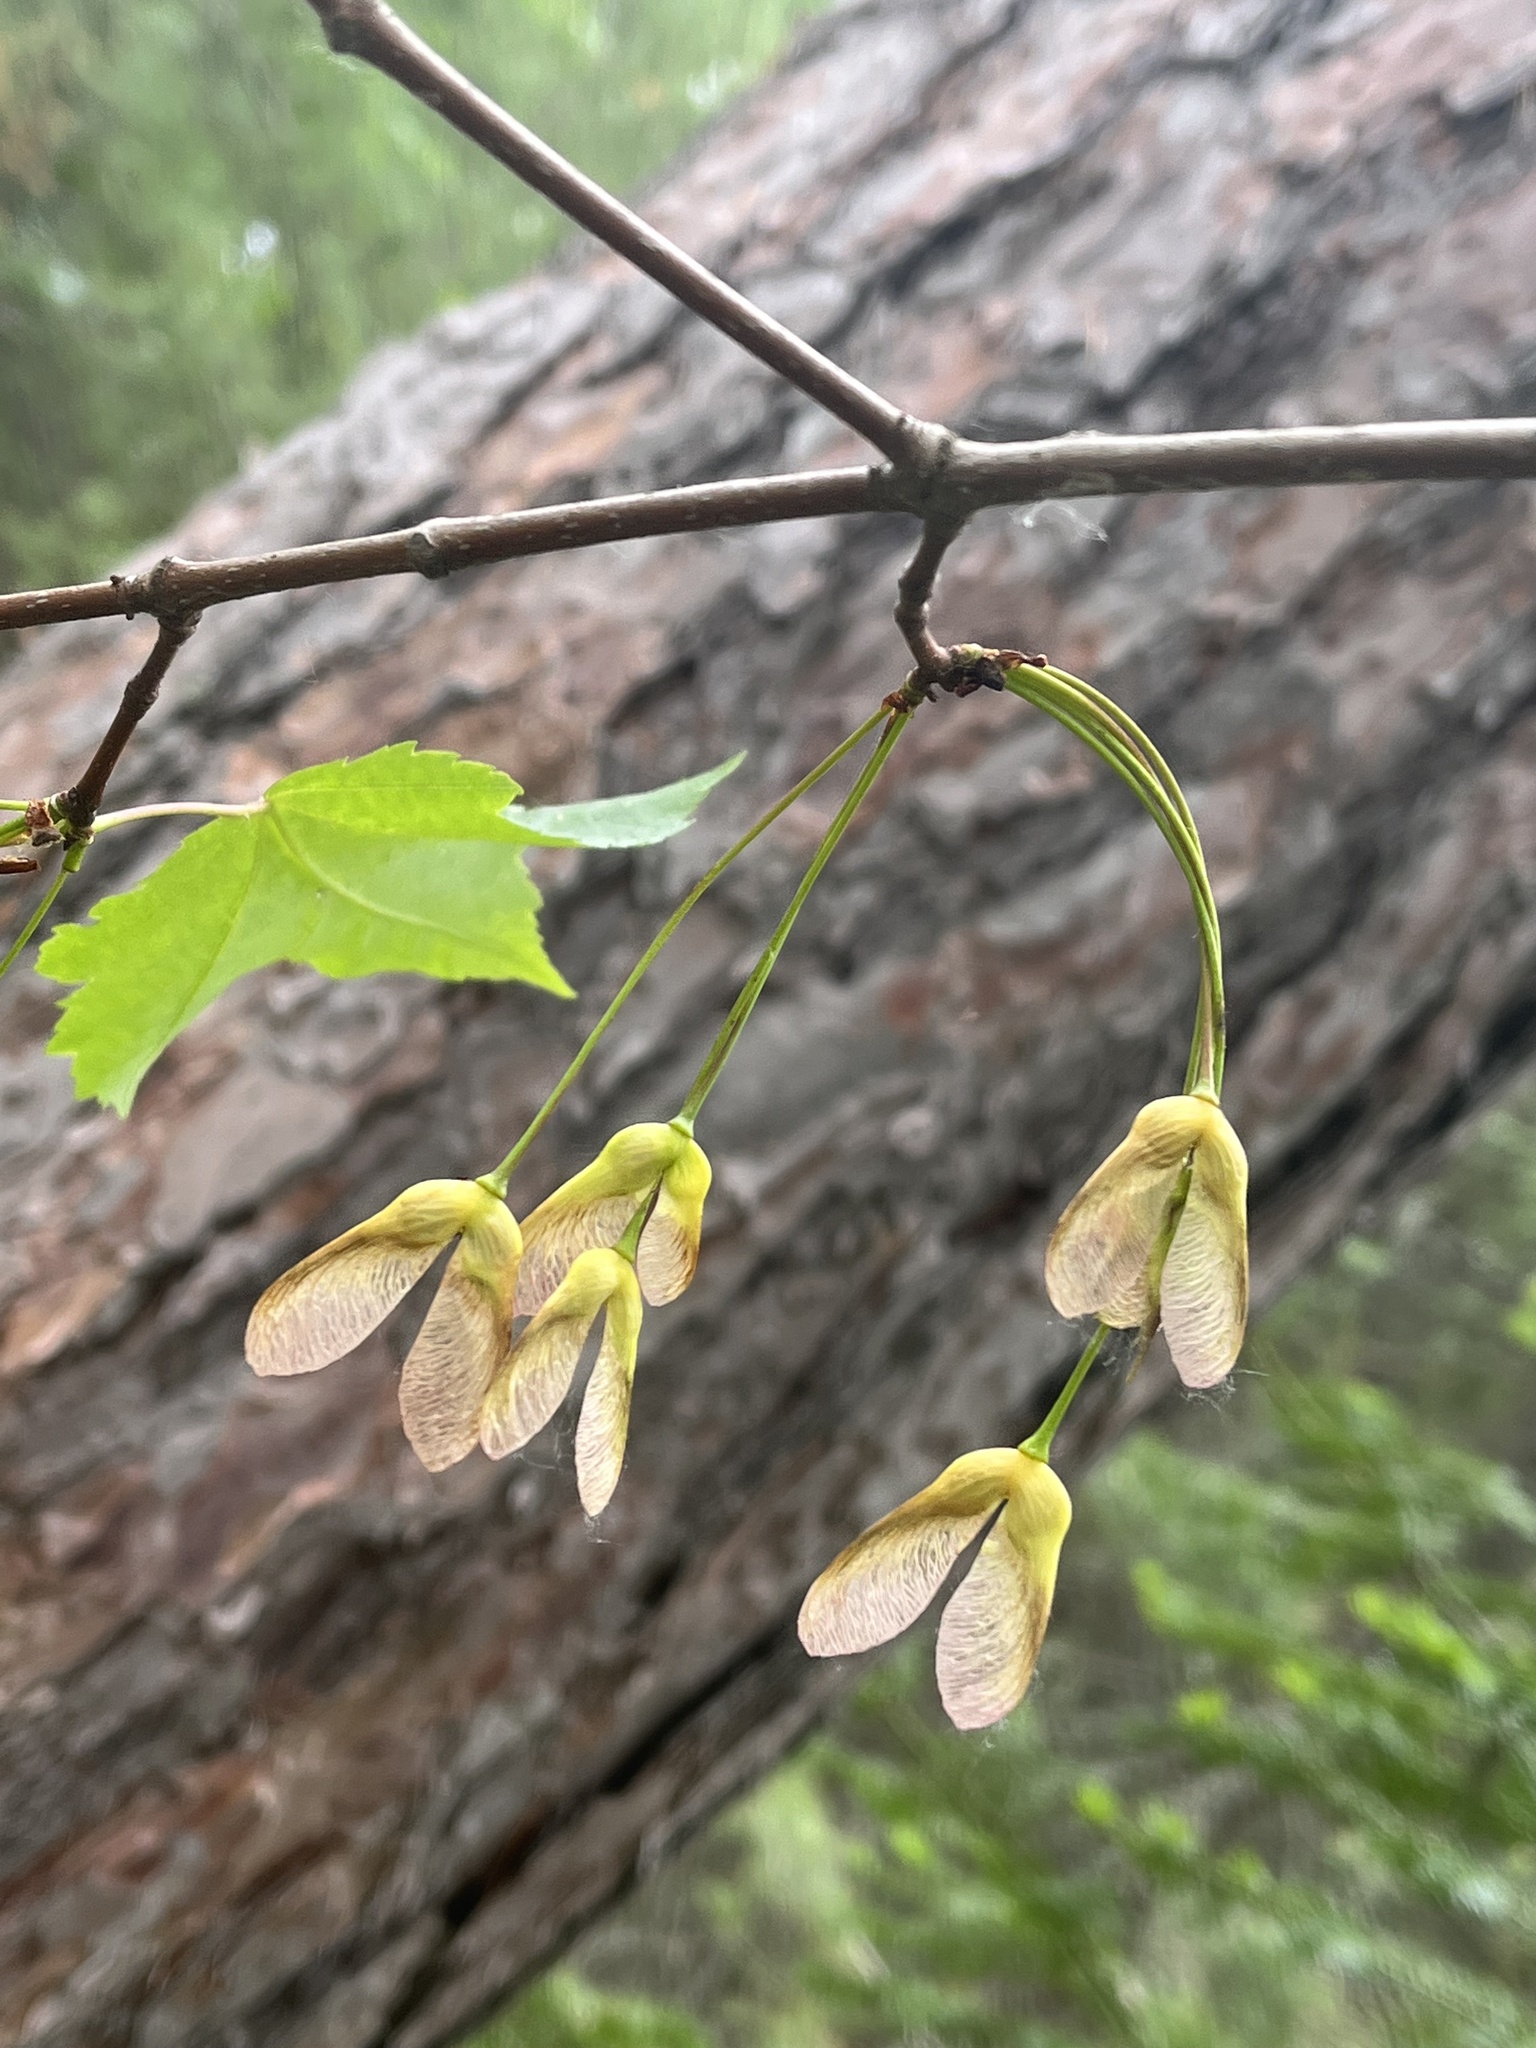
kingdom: Plantae
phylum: Tracheophyta
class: Magnoliopsida
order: Sapindales
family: Sapindaceae
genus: Acer
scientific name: Acer rubrum
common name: Red maple
